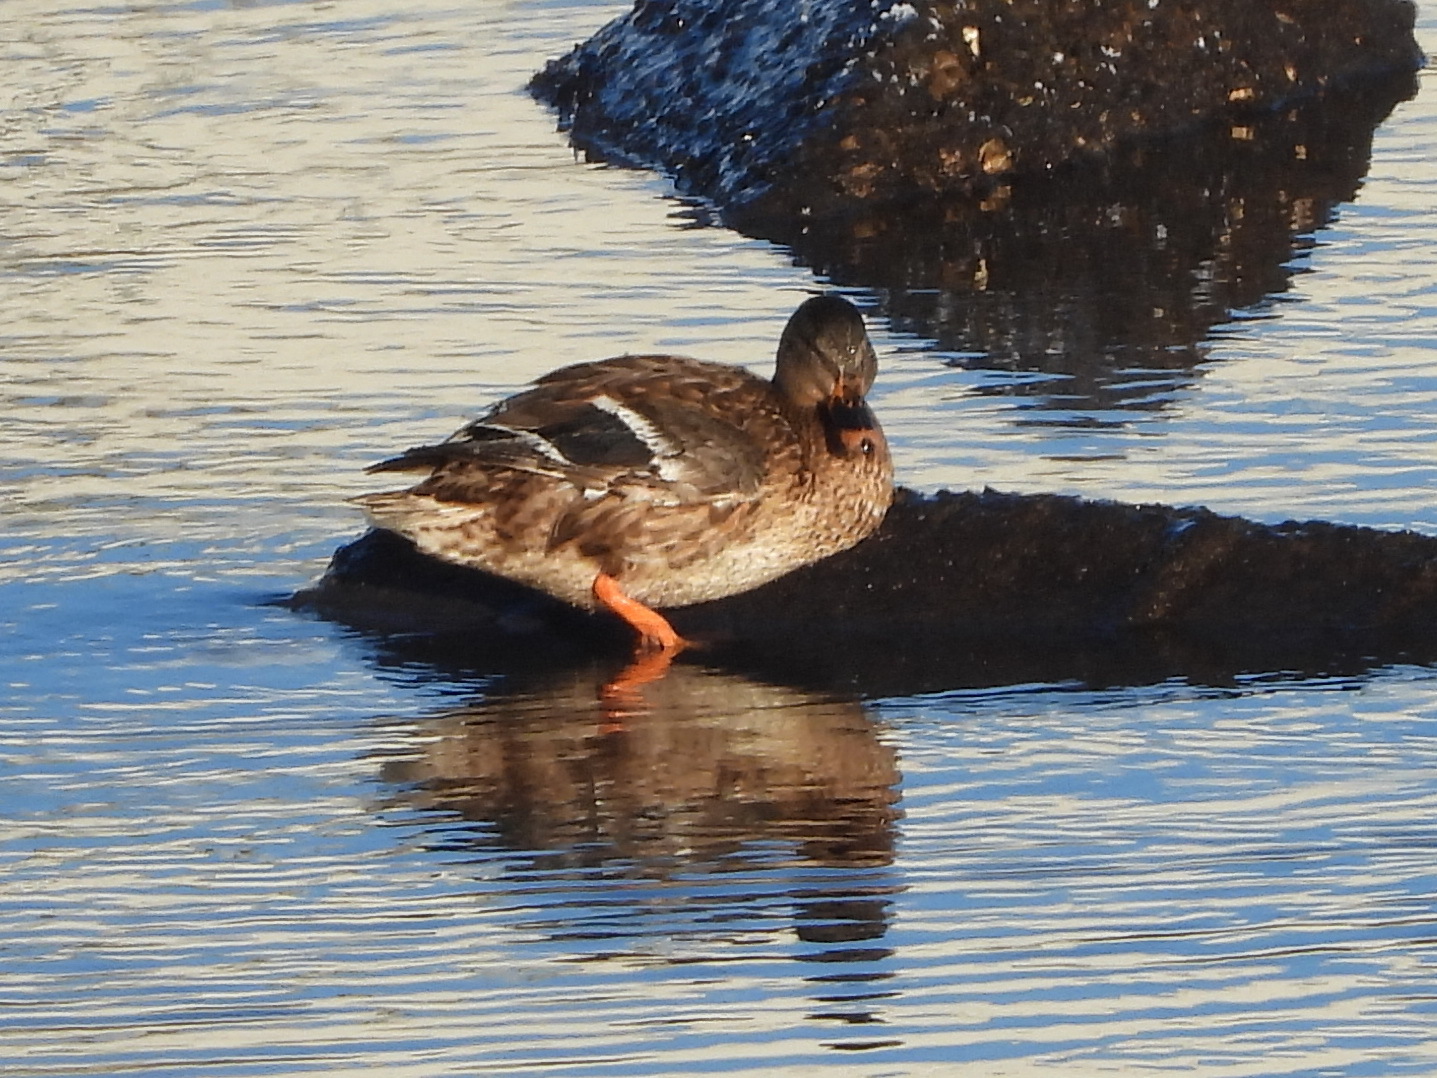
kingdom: Animalia
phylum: Chordata
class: Aves
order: Anseriformes
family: Anatidae
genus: Anas
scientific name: Anas platyrhynchos
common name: Mallard
